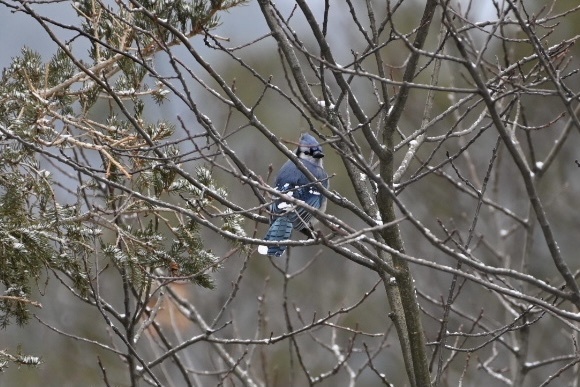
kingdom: Animalia
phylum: Chordata
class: Aves
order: Passeriformes
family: Corvidae
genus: Cyanocitta
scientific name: Cyanocitta cristata
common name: Blue jay
